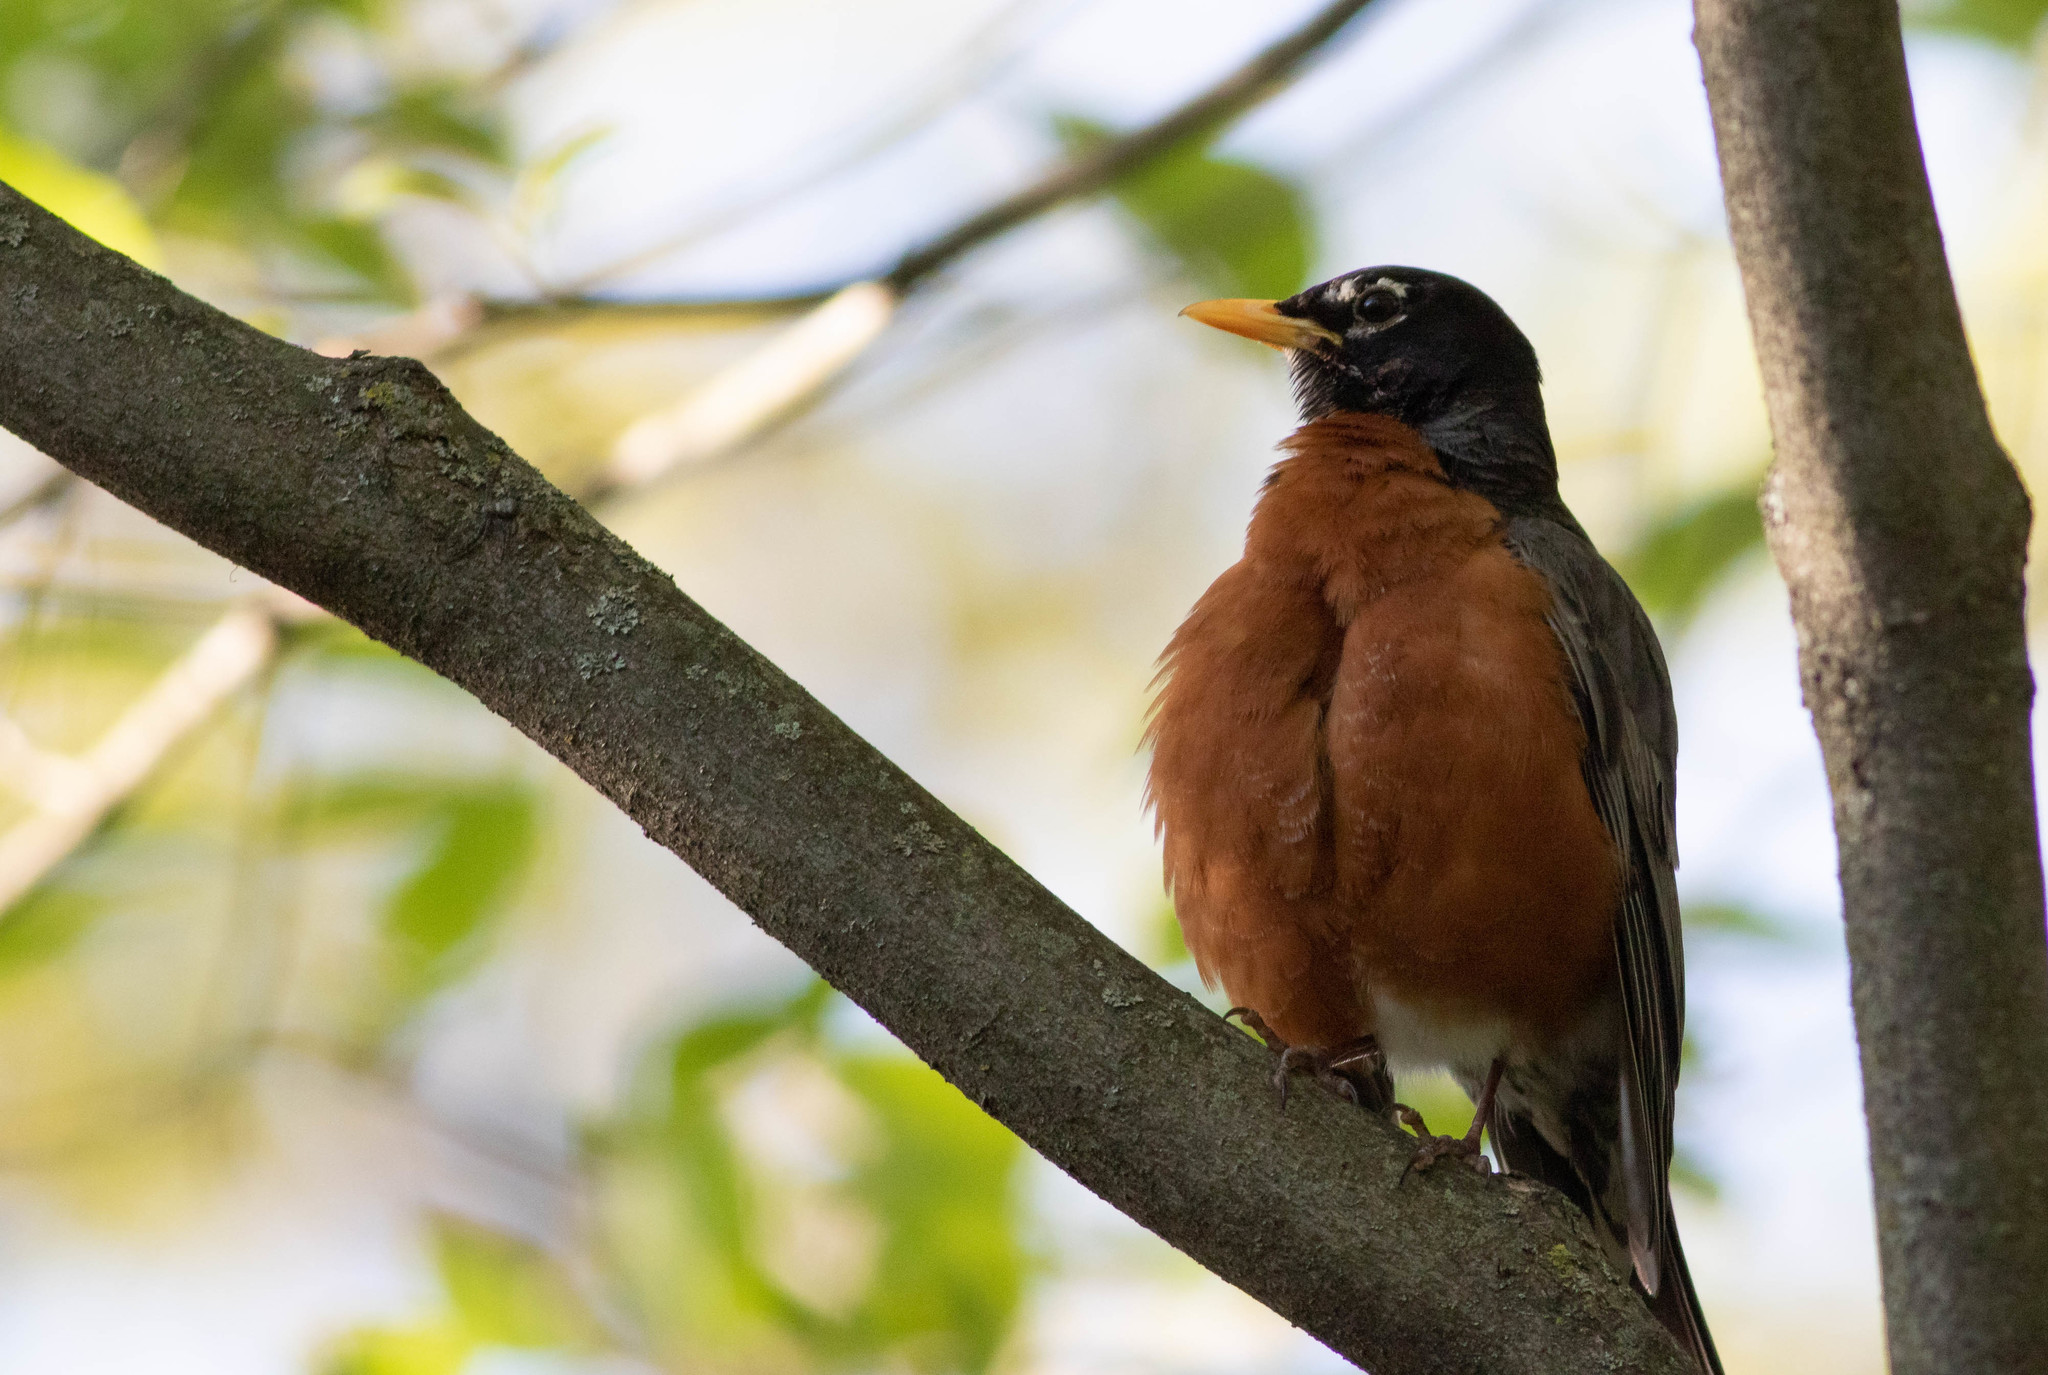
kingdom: Animalia
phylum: Chordata
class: Aves
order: Passeriformes
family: Turdidae
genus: Turdus
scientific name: Turdus migratorius
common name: American robin
